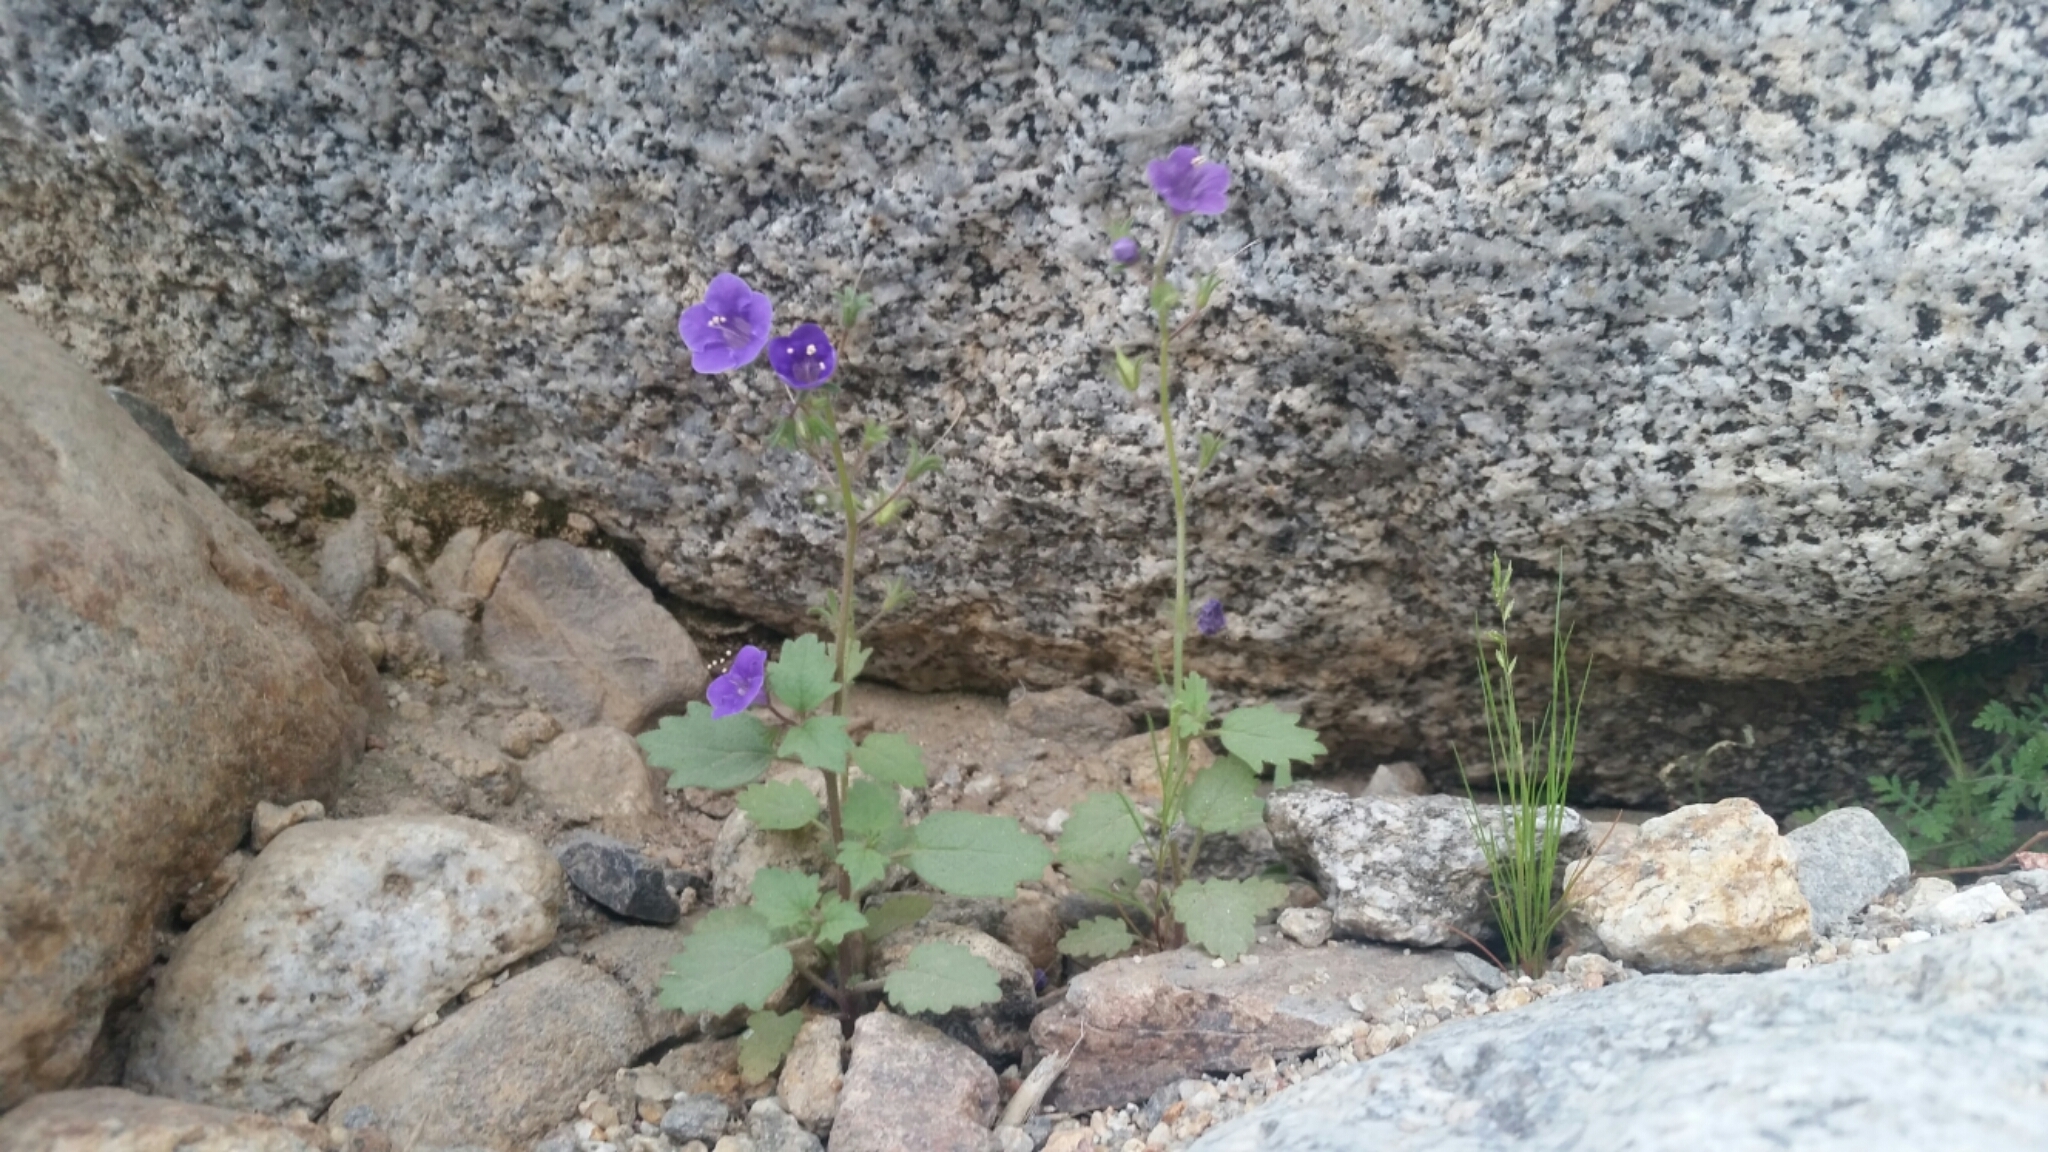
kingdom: Plantae
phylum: Tracheophyta
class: Magnoliopsida
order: Boraginales
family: Hydrophyllaceae
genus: Phacelia
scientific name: Phacelia minor
